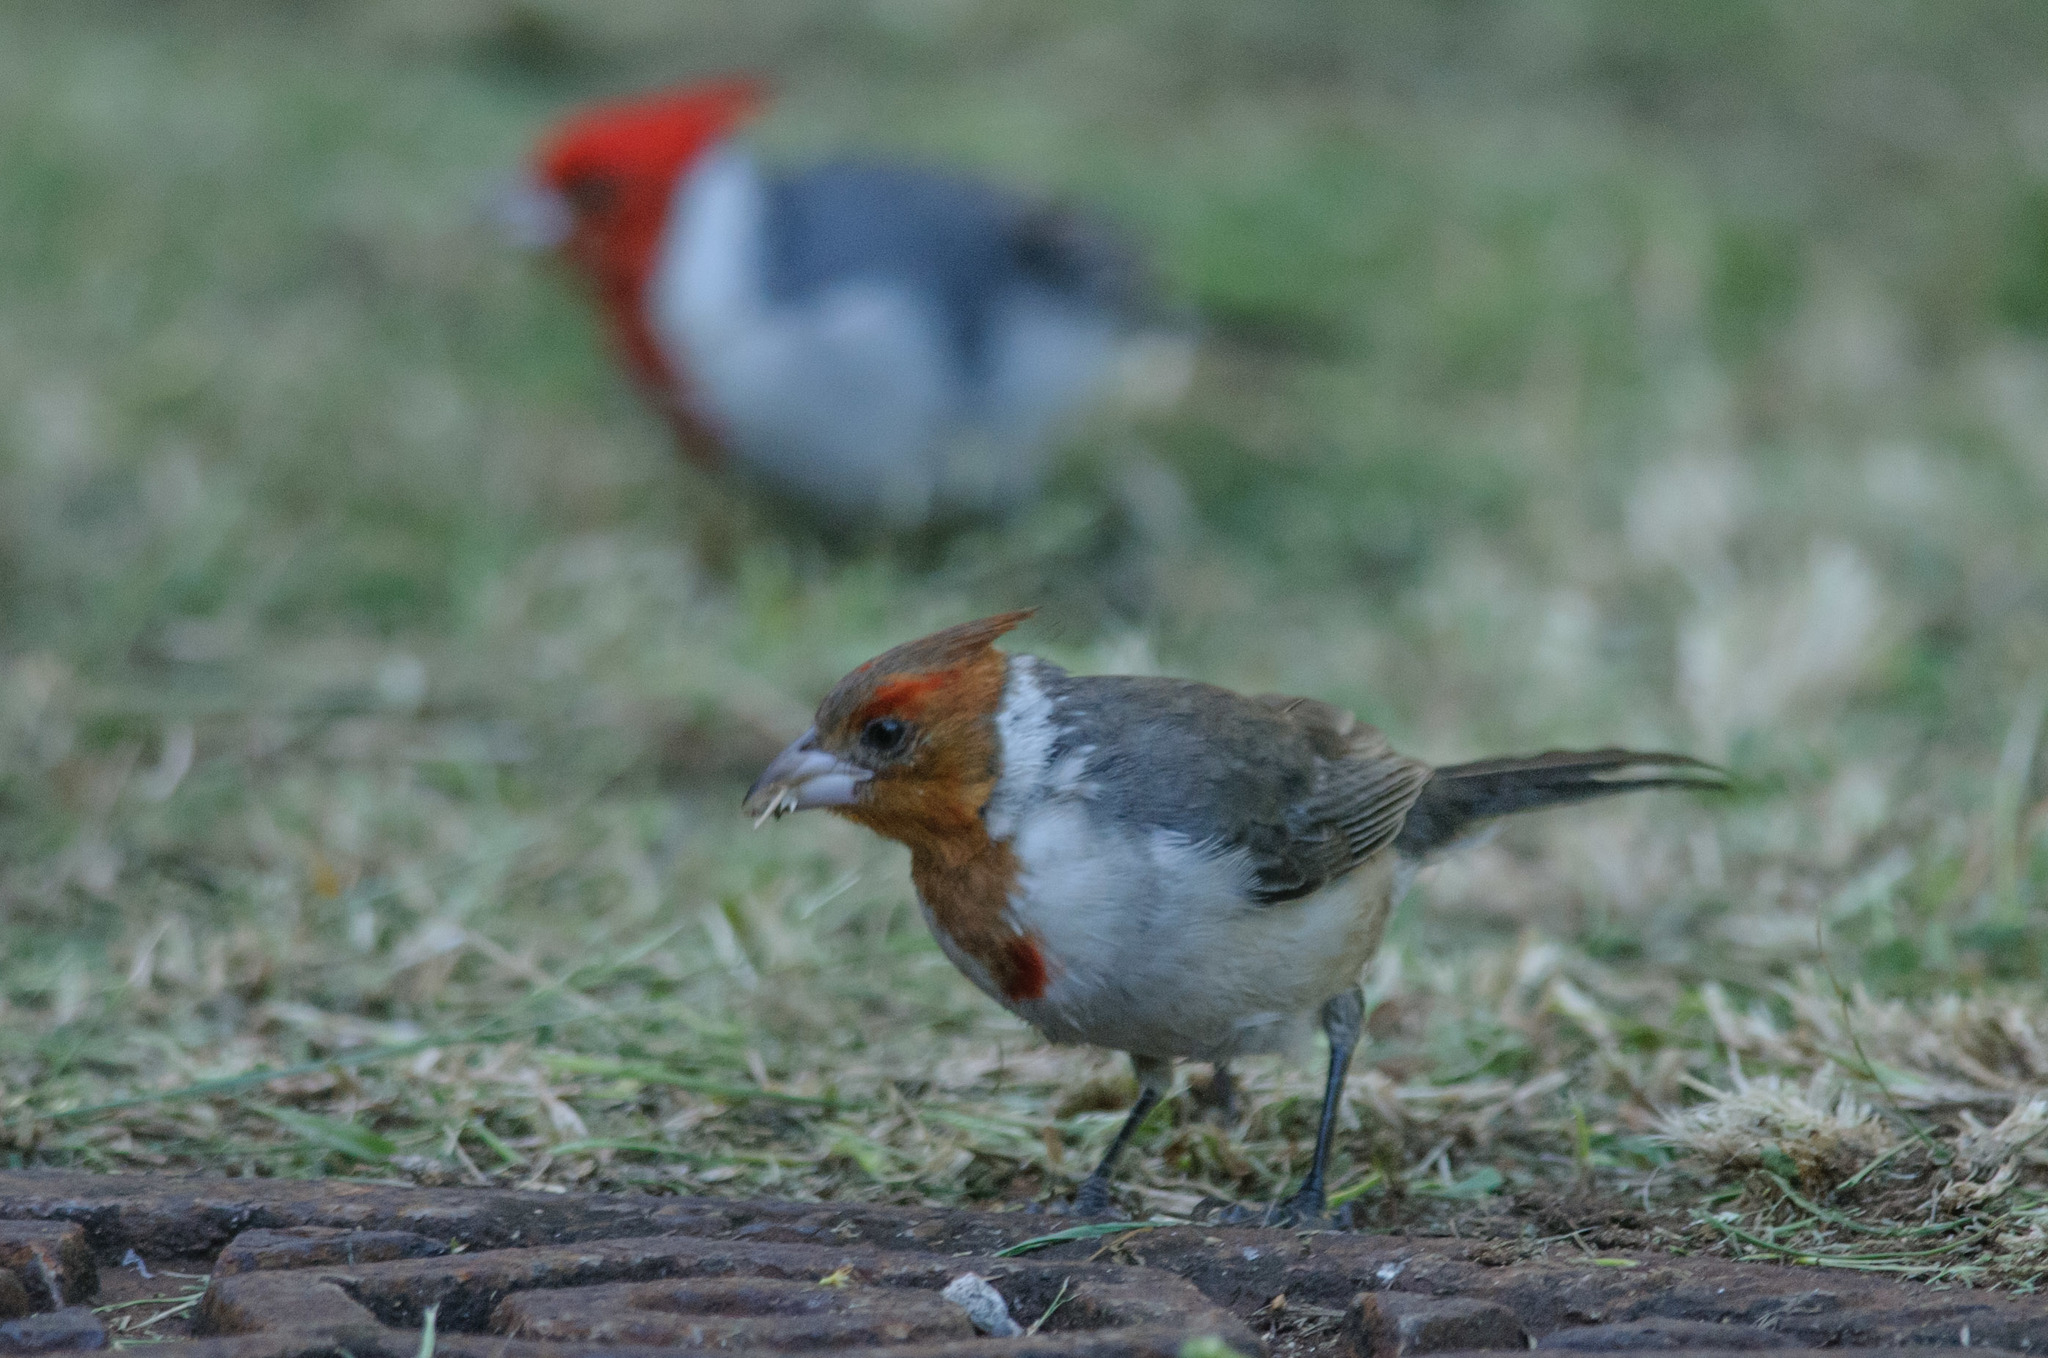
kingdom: Animalia
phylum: Chordata
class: Aves
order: Passeriformes
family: Thraupidae
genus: Paroaria
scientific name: Paroaria coronata
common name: Red-crested cardinal
